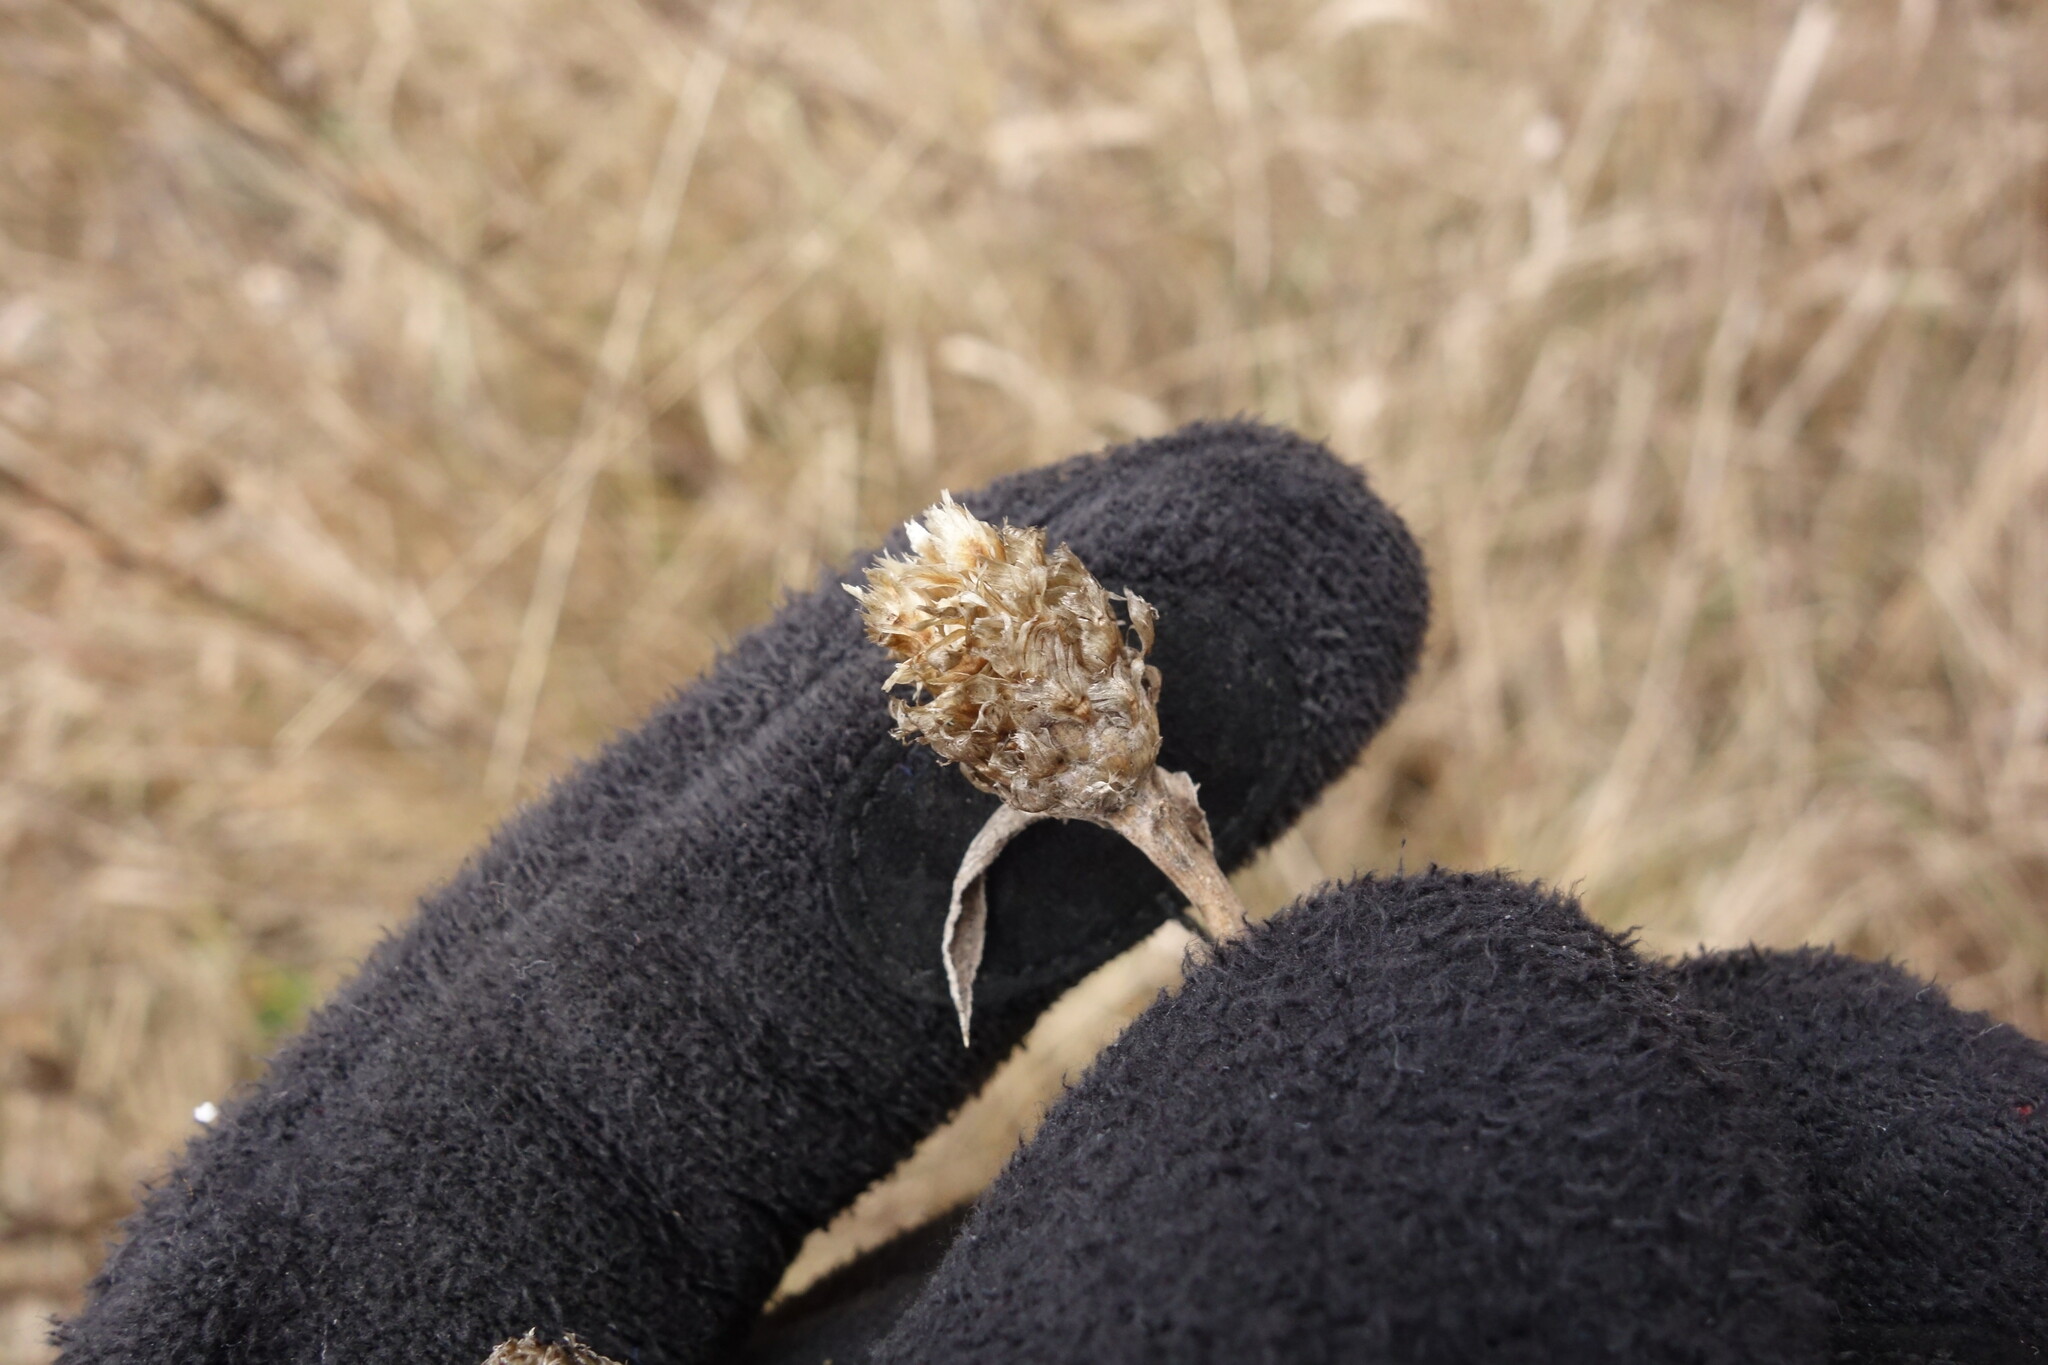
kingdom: Plantae
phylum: Tracheophyta
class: Magnoliopsida
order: Asterales
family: Asteraceae
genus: Centaurea
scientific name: Centaurea jacea
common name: Brown knapweed
